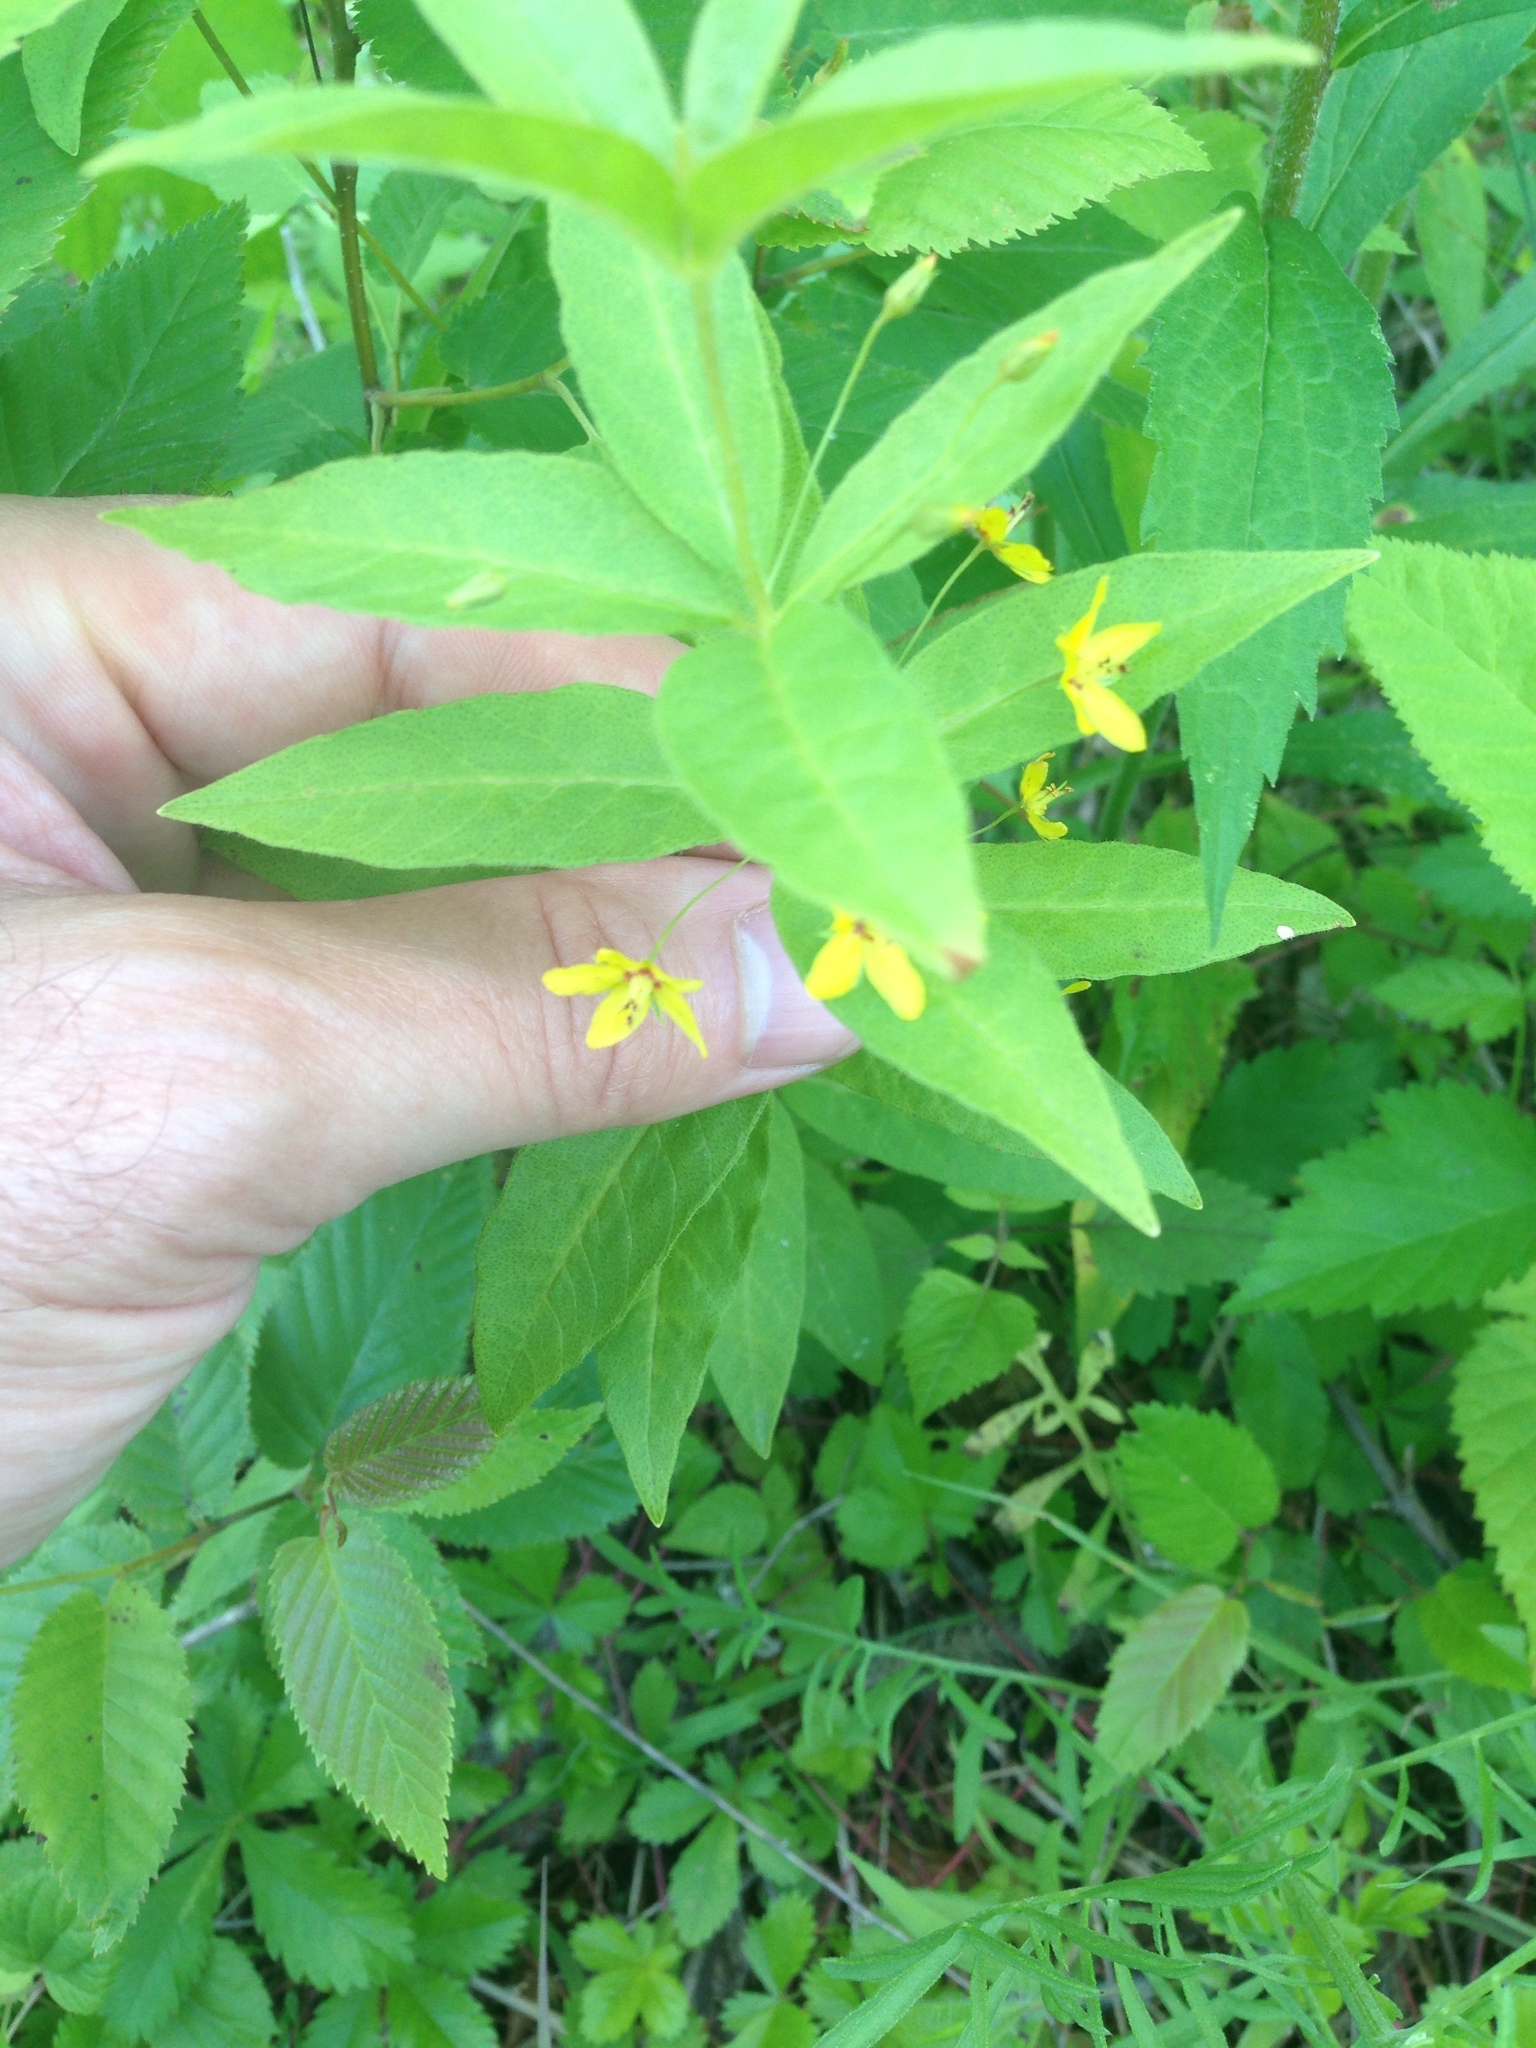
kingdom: Plantae
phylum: Tracheophyta
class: Magnoliopsida
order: Ericales
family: Primulaceae
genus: Lysimachia
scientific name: Lysimachia quadrifolia
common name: Whorled loosestrife
